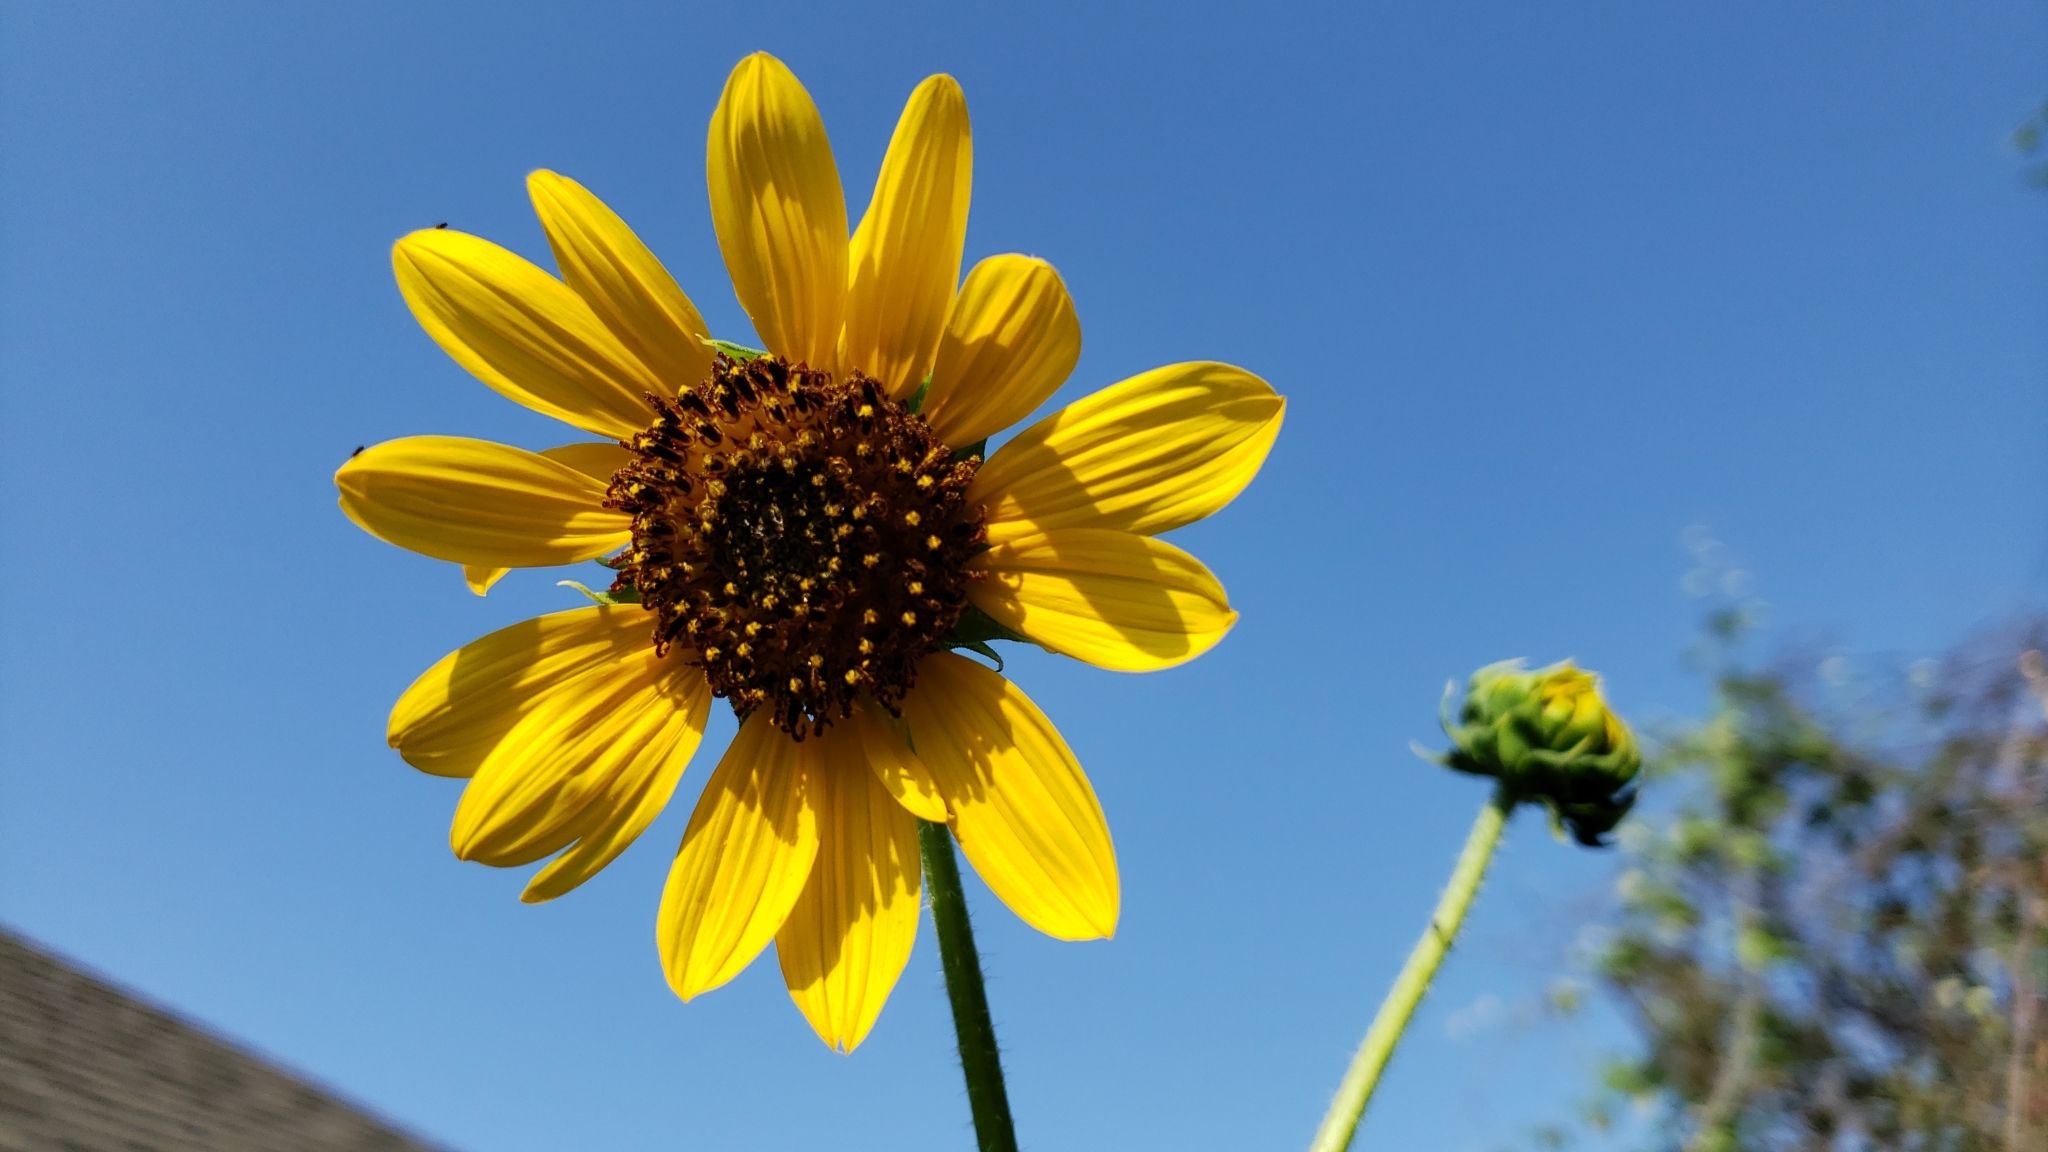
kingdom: Plantae
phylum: Tracheophyta
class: Magnoliopsida
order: Asterales
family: Asteraceae
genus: Helianthus
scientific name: Helianthus annuus
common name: Sunflower
